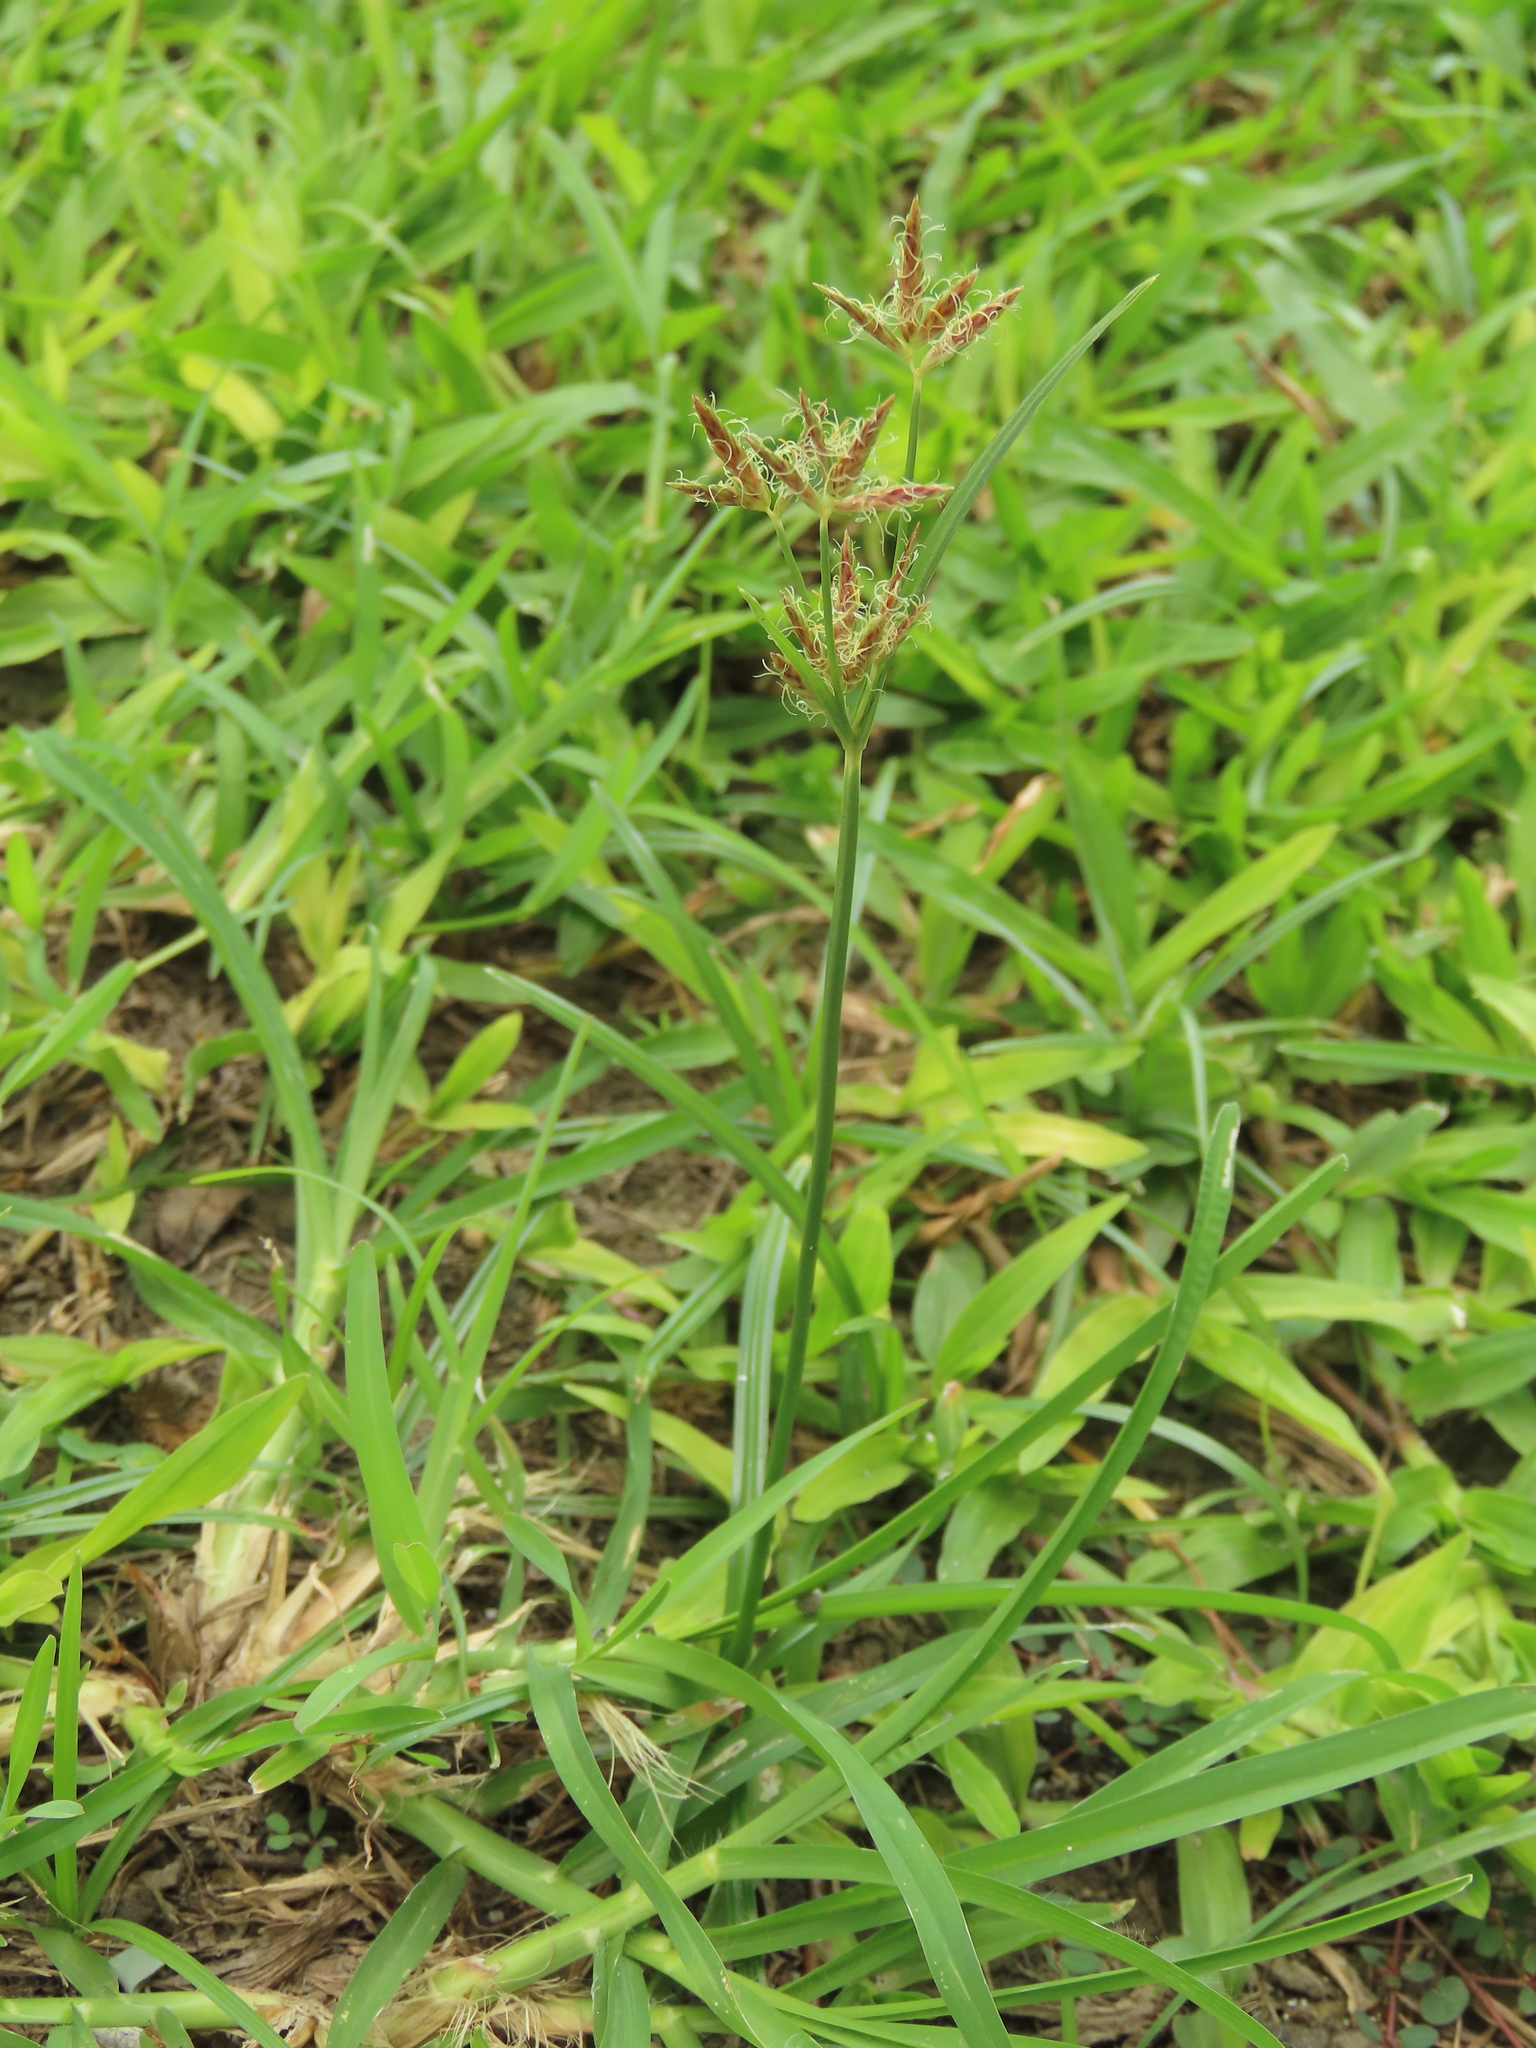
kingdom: Plantae
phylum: Tracheophyta
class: Liliopsida
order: Poales
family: Cyperaceae
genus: Cyperus
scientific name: Cyperus rotundus
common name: Nutgrass
